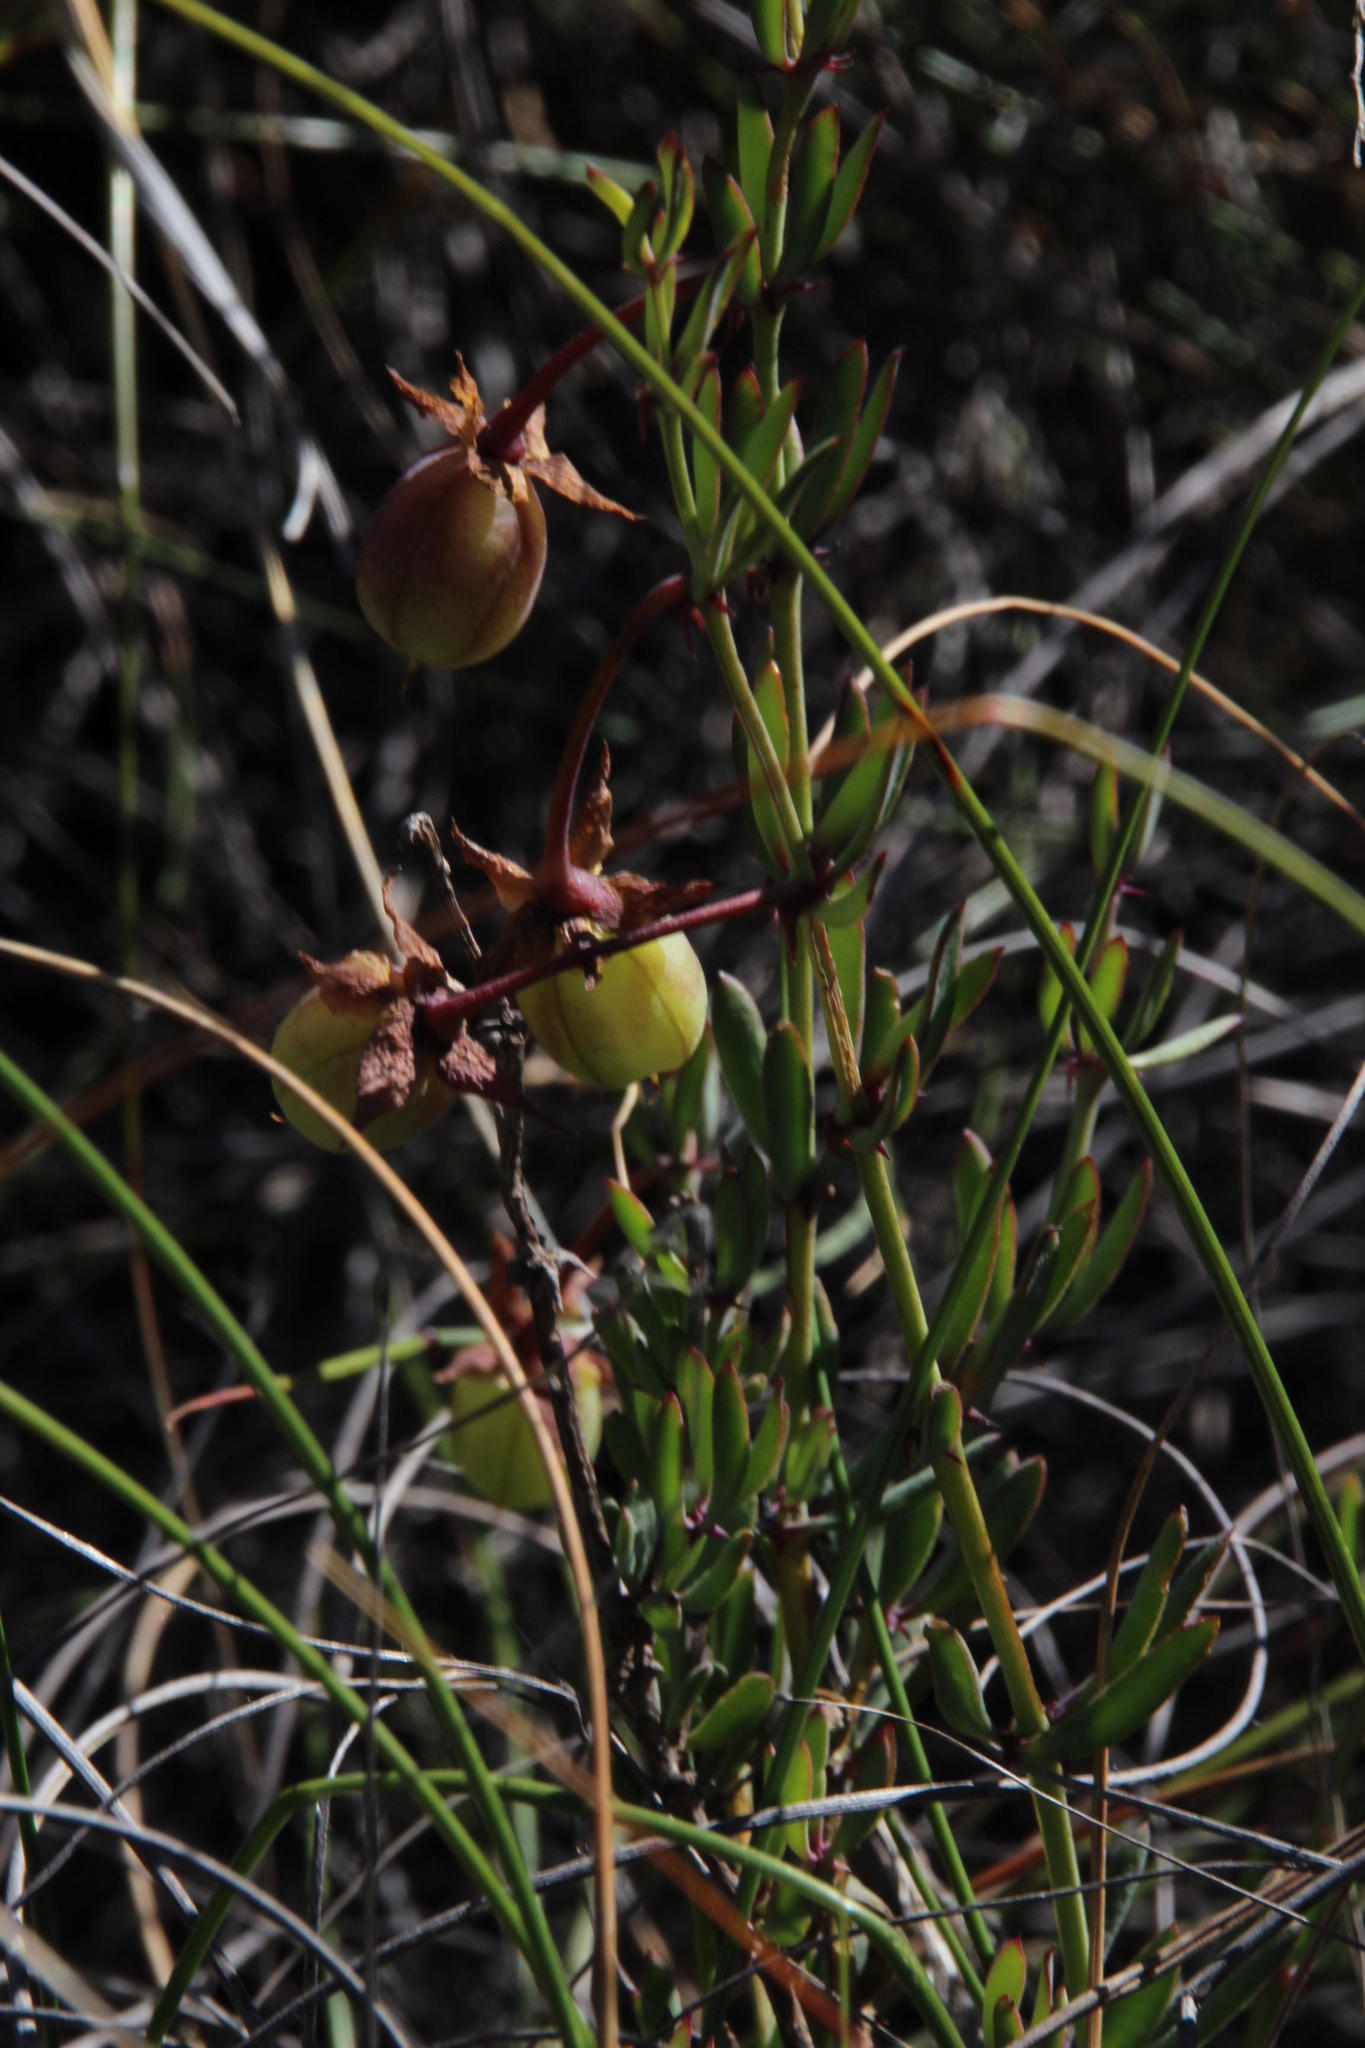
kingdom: Plantae
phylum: Tracheophyta
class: Magnoliopsida
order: Geraniales
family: Geraniaceae
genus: Pelargonium
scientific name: Pelargonium lanceolatum
